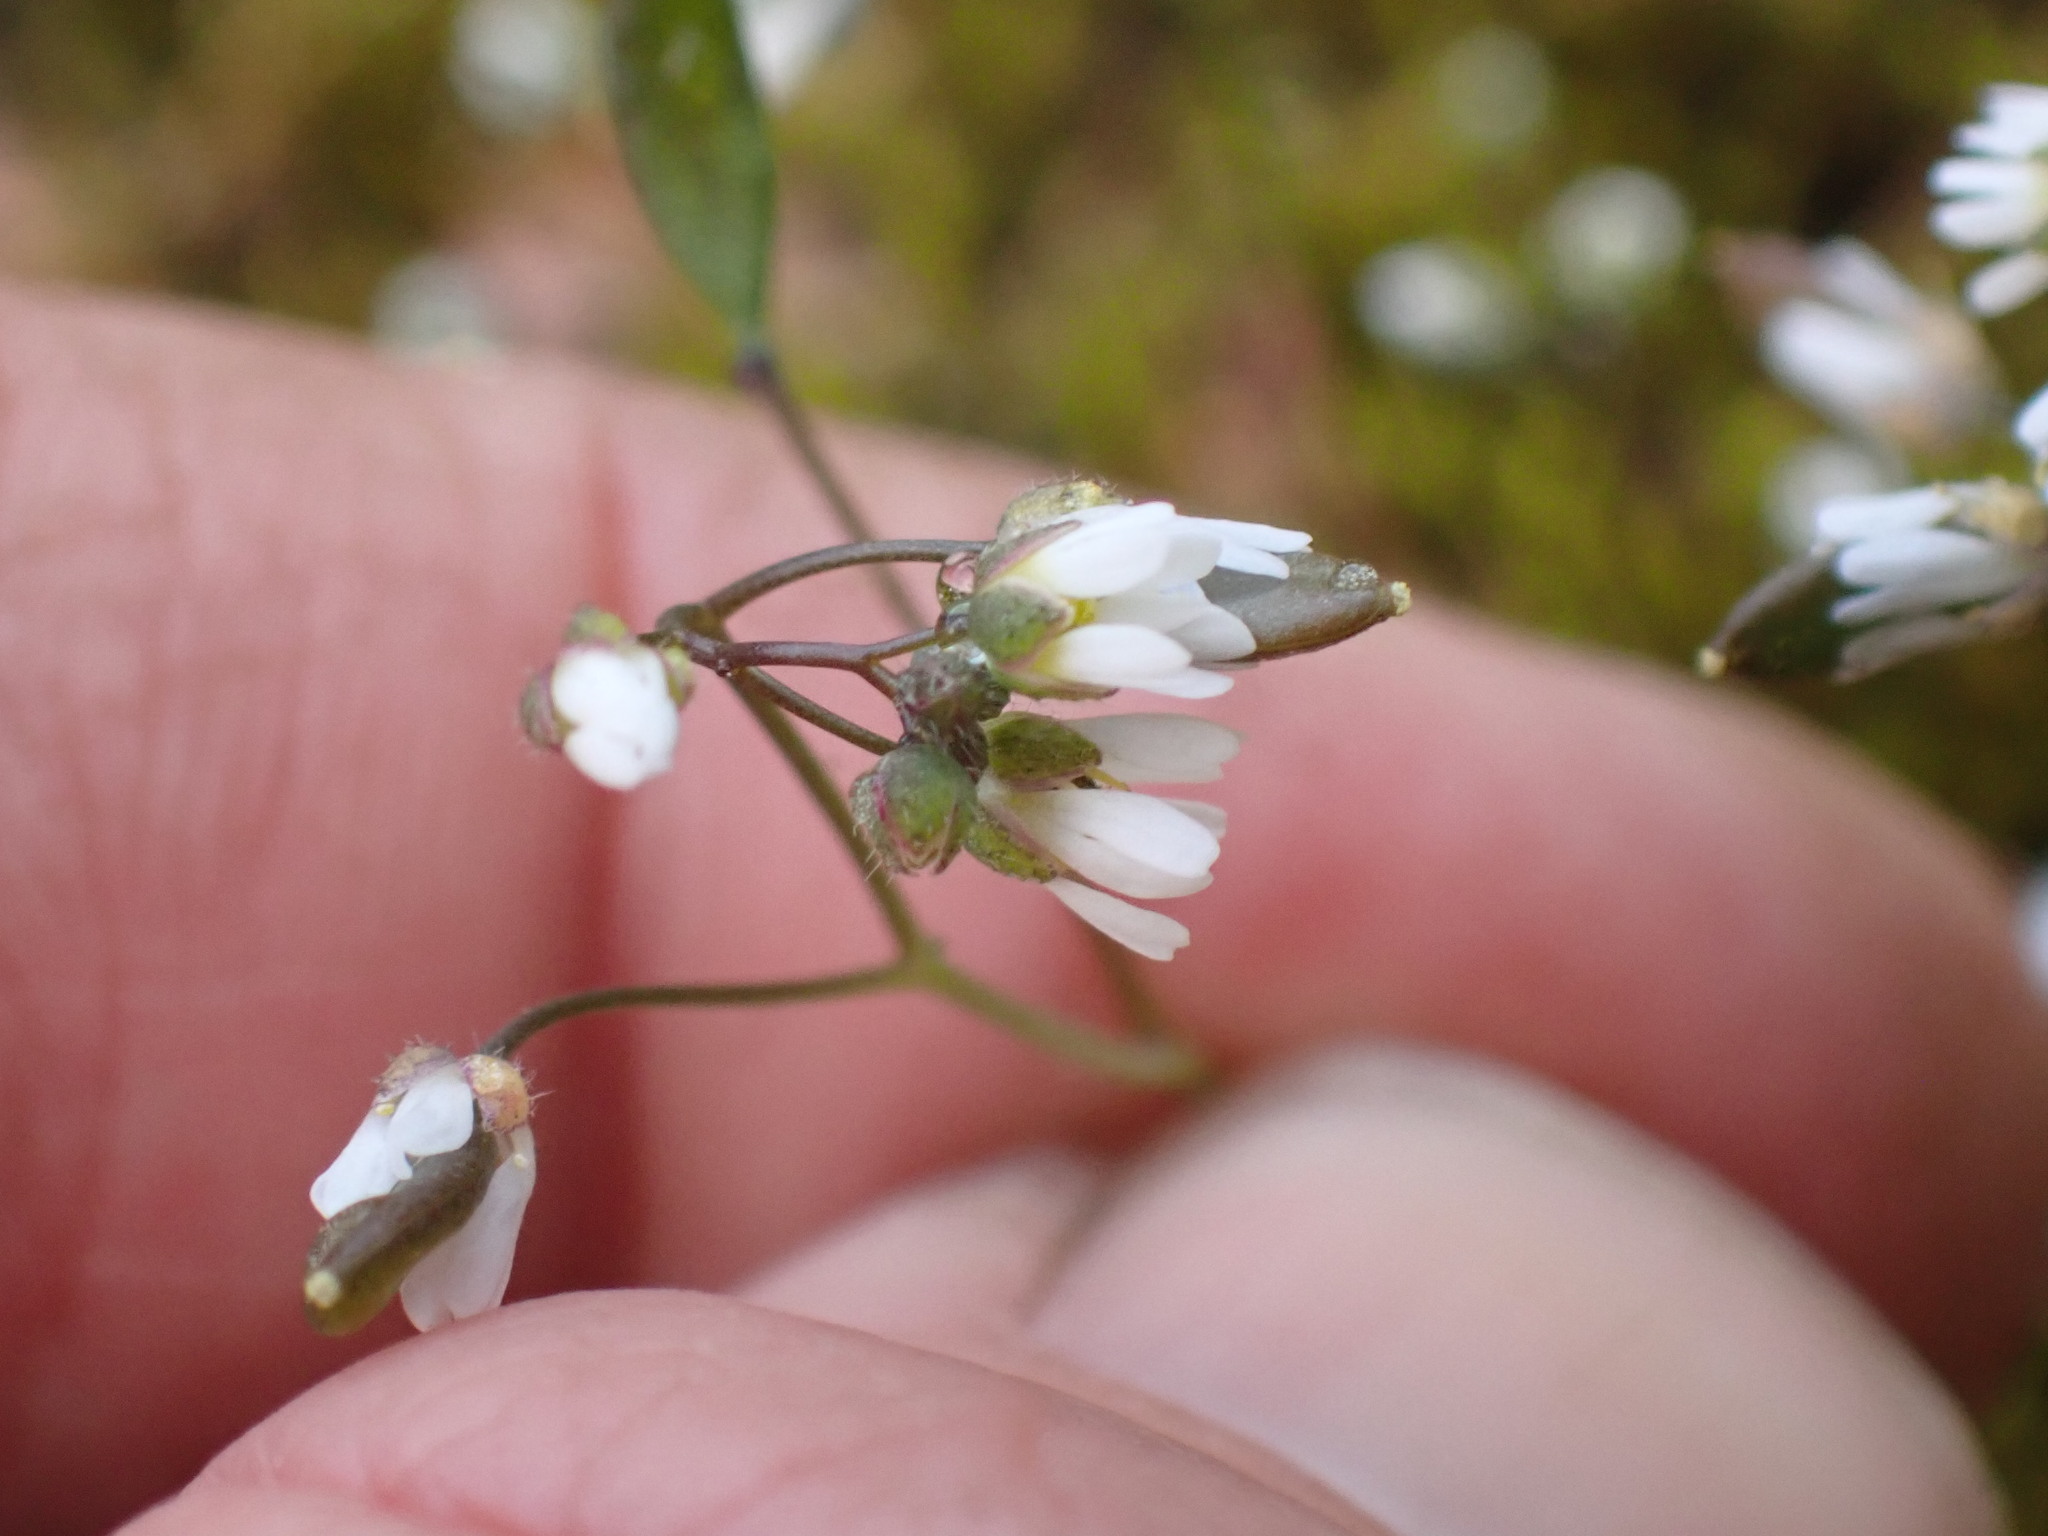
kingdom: Plantae
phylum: Tracheophyta
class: Magnoliopsida
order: Brassicales
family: Brassicaceae
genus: Draba
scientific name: Draba verna
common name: Spring draba
